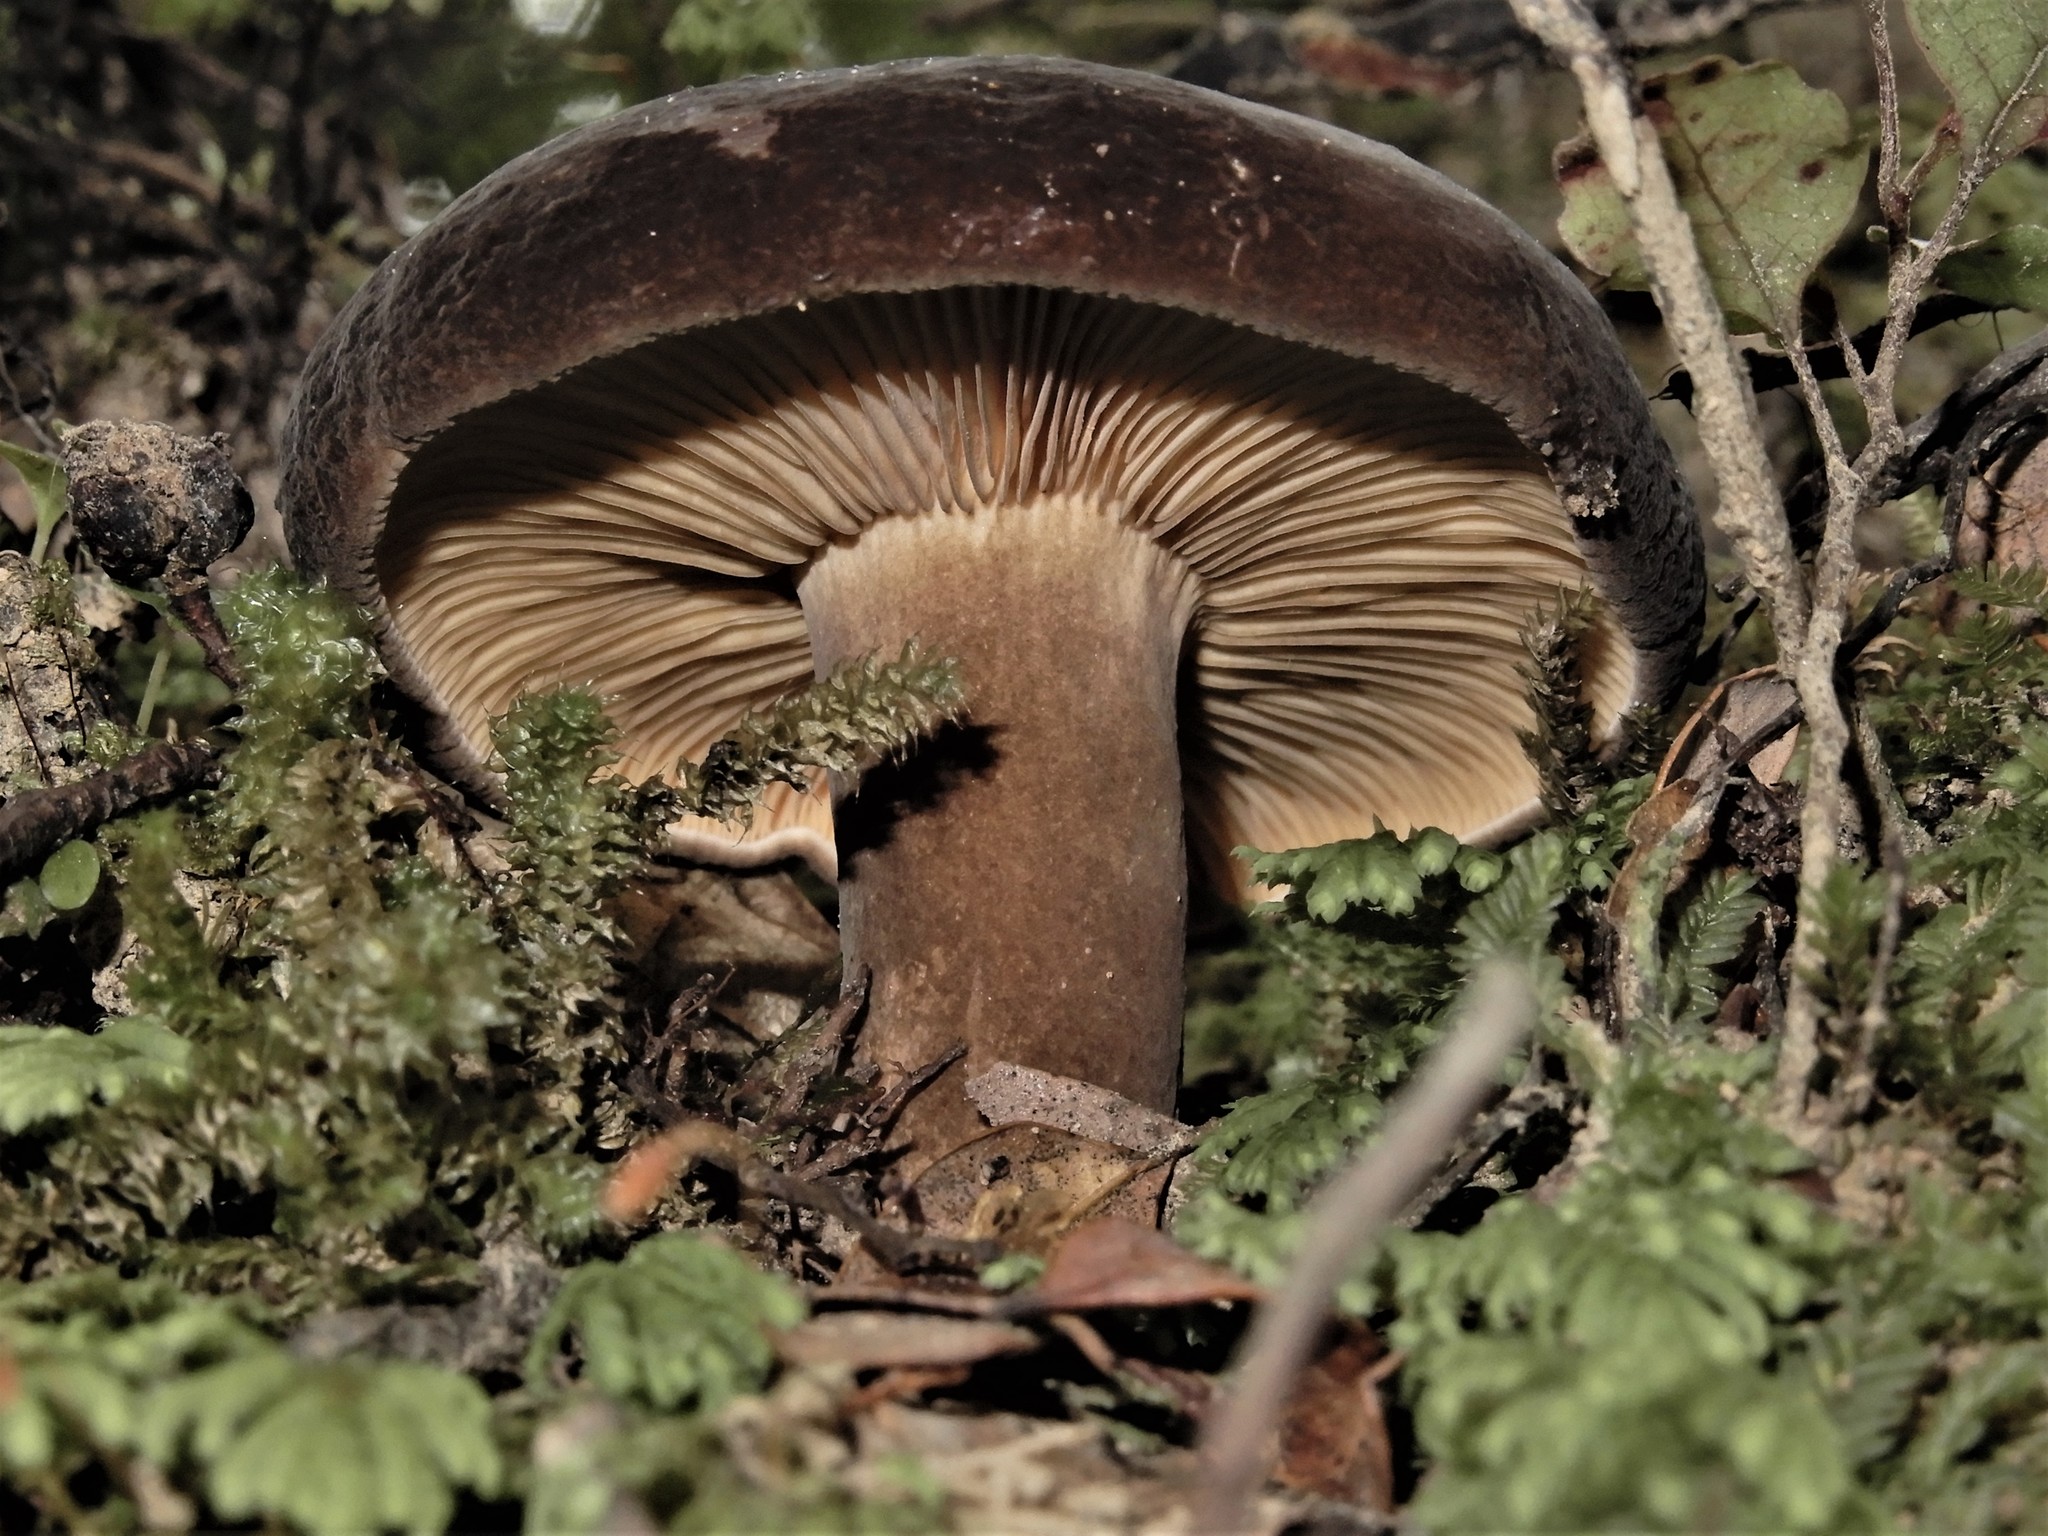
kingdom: Fungi
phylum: Basidiomycota
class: Agaricomycetes
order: Russulales
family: Russulaceae
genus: Lactifluus
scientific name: Lactifluus sepiaceus
